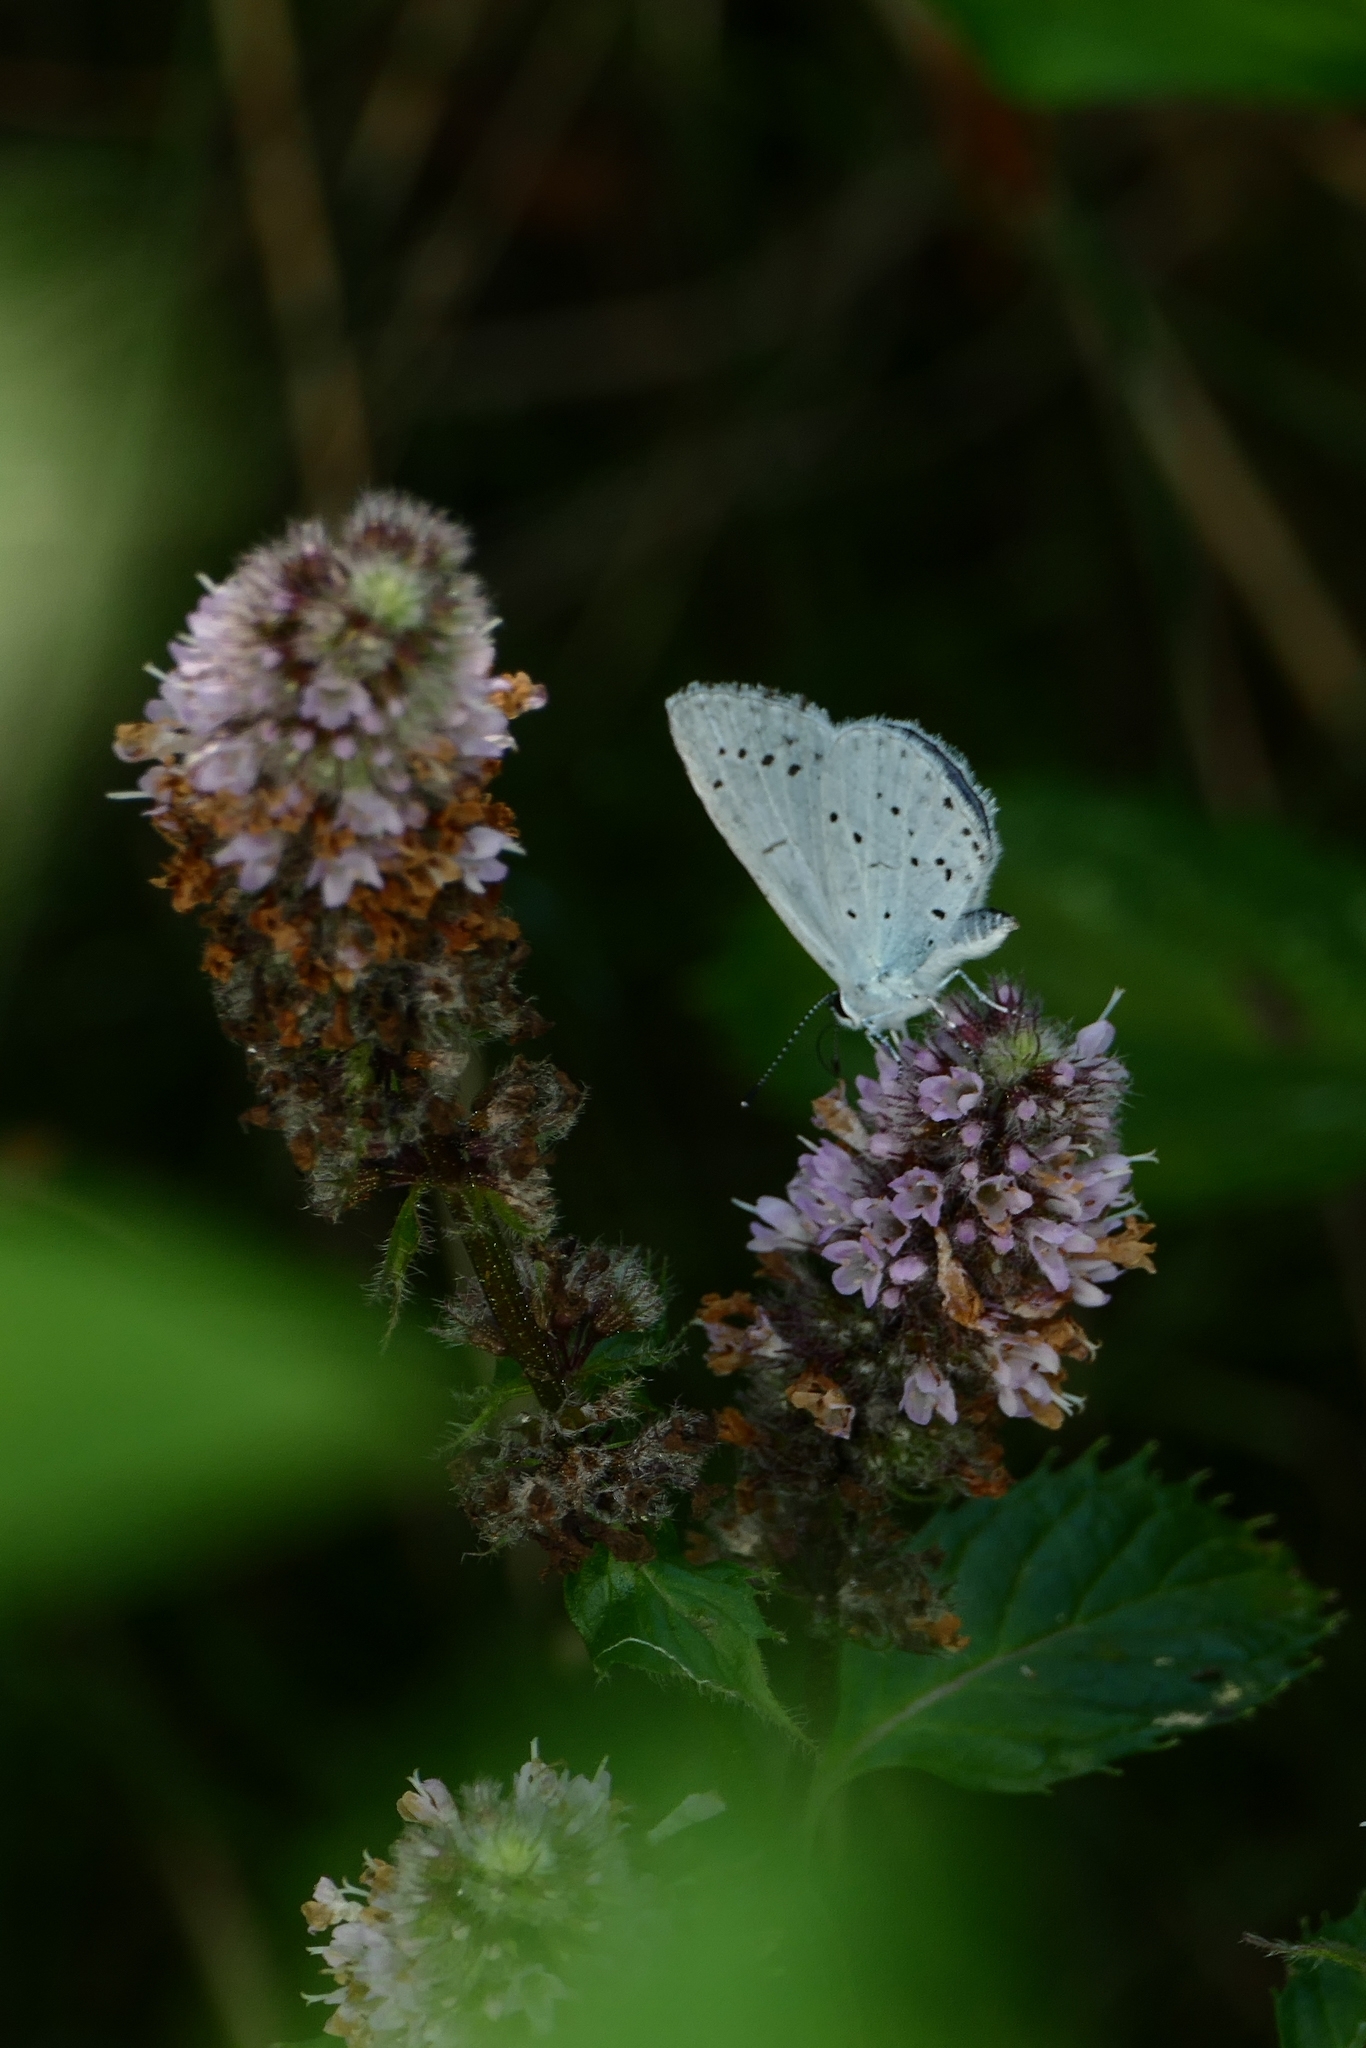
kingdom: Animalia
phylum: Arthropoda
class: Insecta
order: Lepidoptera
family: Lycaenidae
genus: Celastrina
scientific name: Celastrina argiolus
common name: Holly blue
